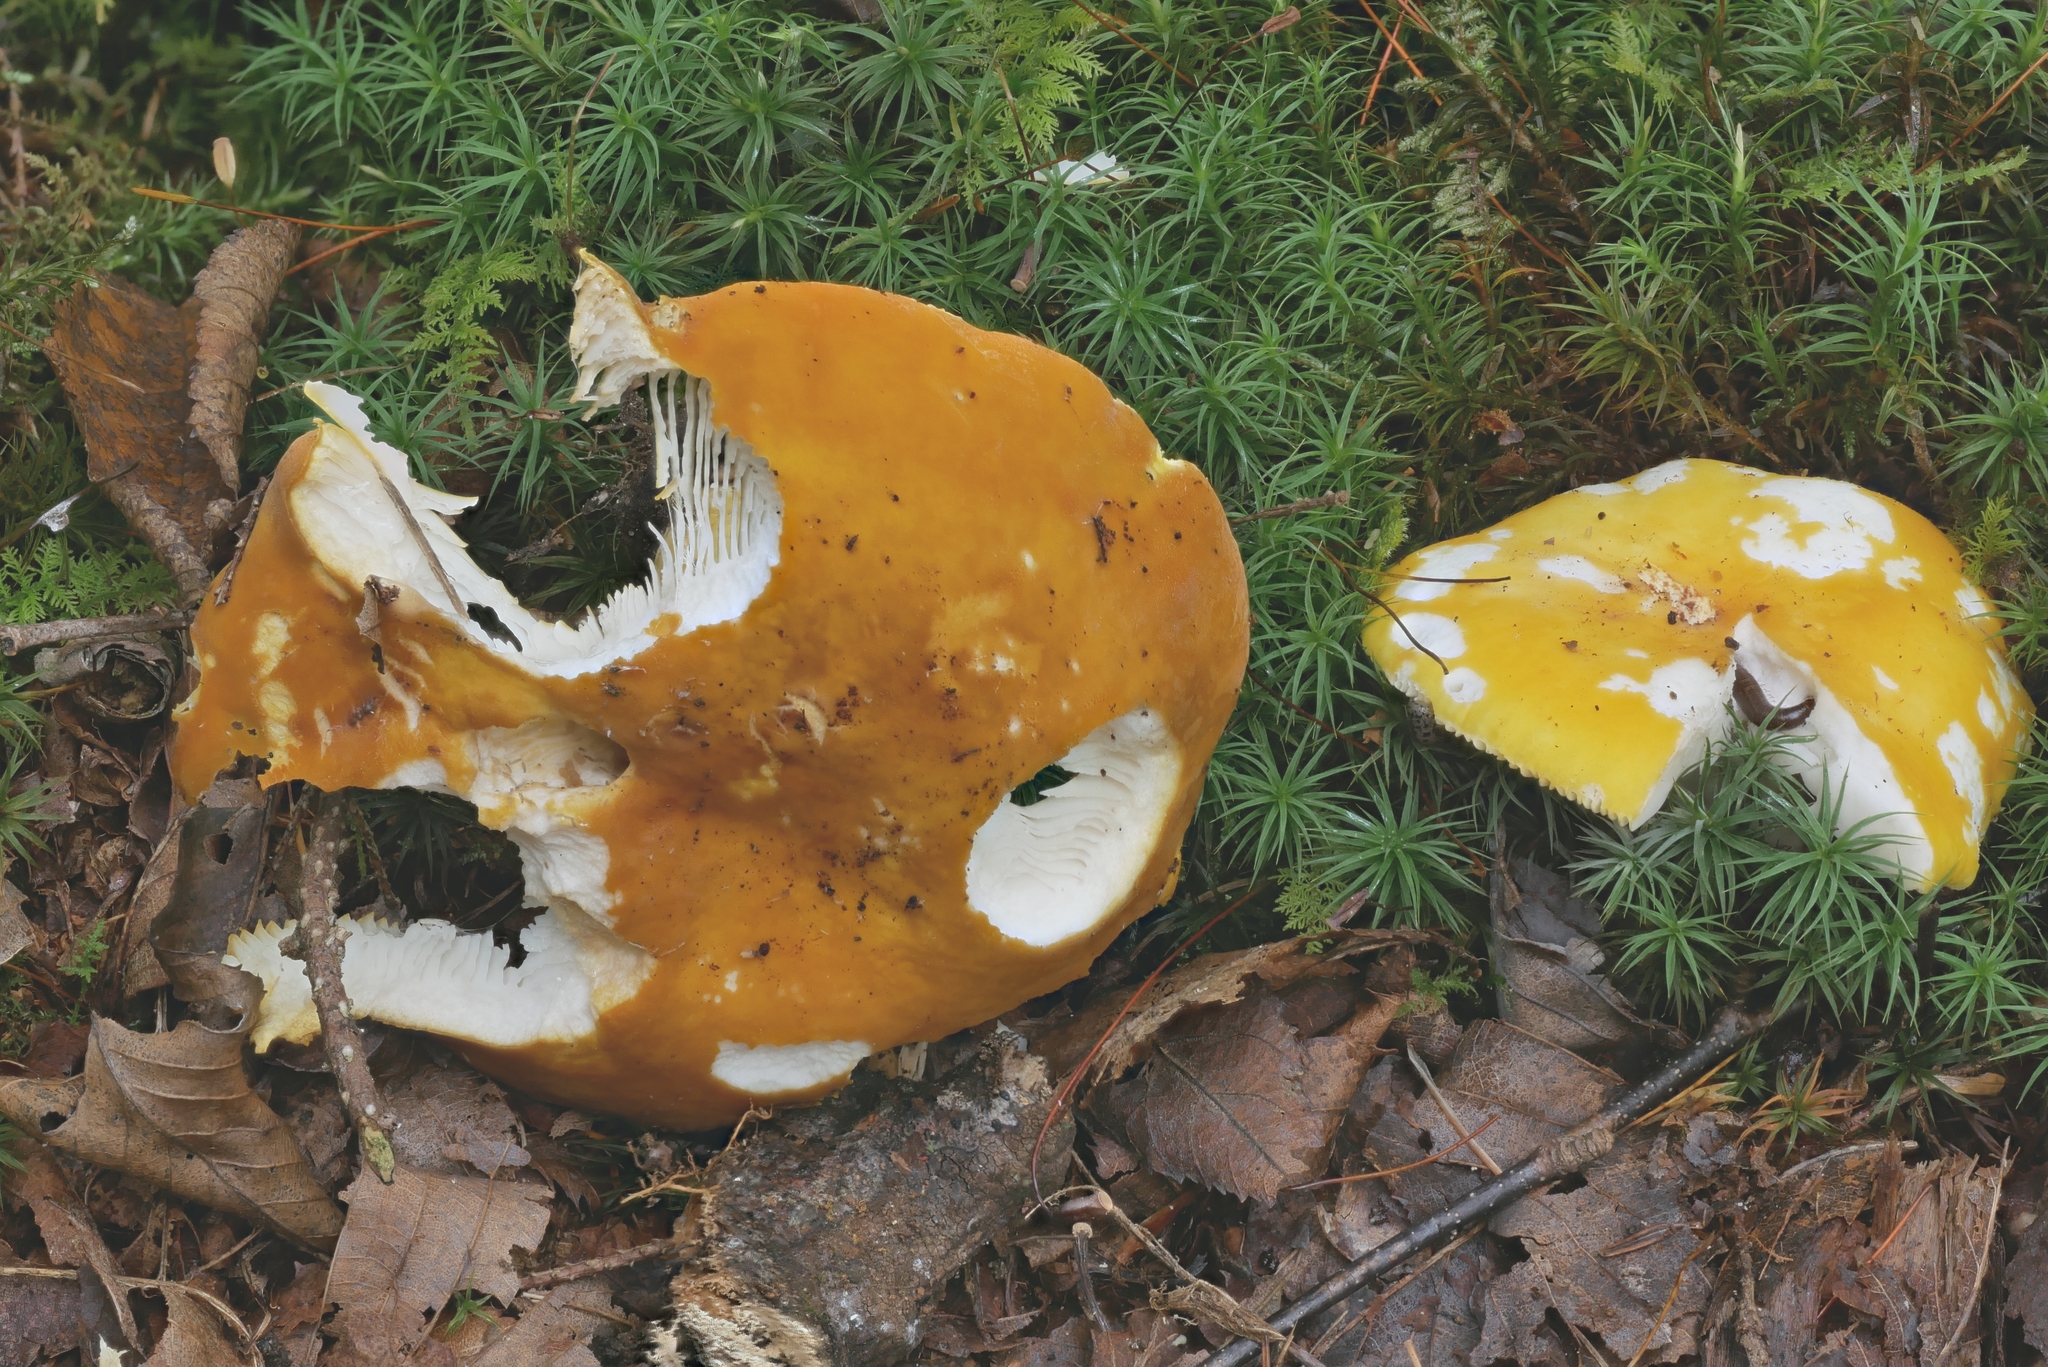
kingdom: Fungi
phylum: Basidiomycota
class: Agaricomycetes
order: Russulales
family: Russulaceae
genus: Russula
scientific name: Russula flavida
